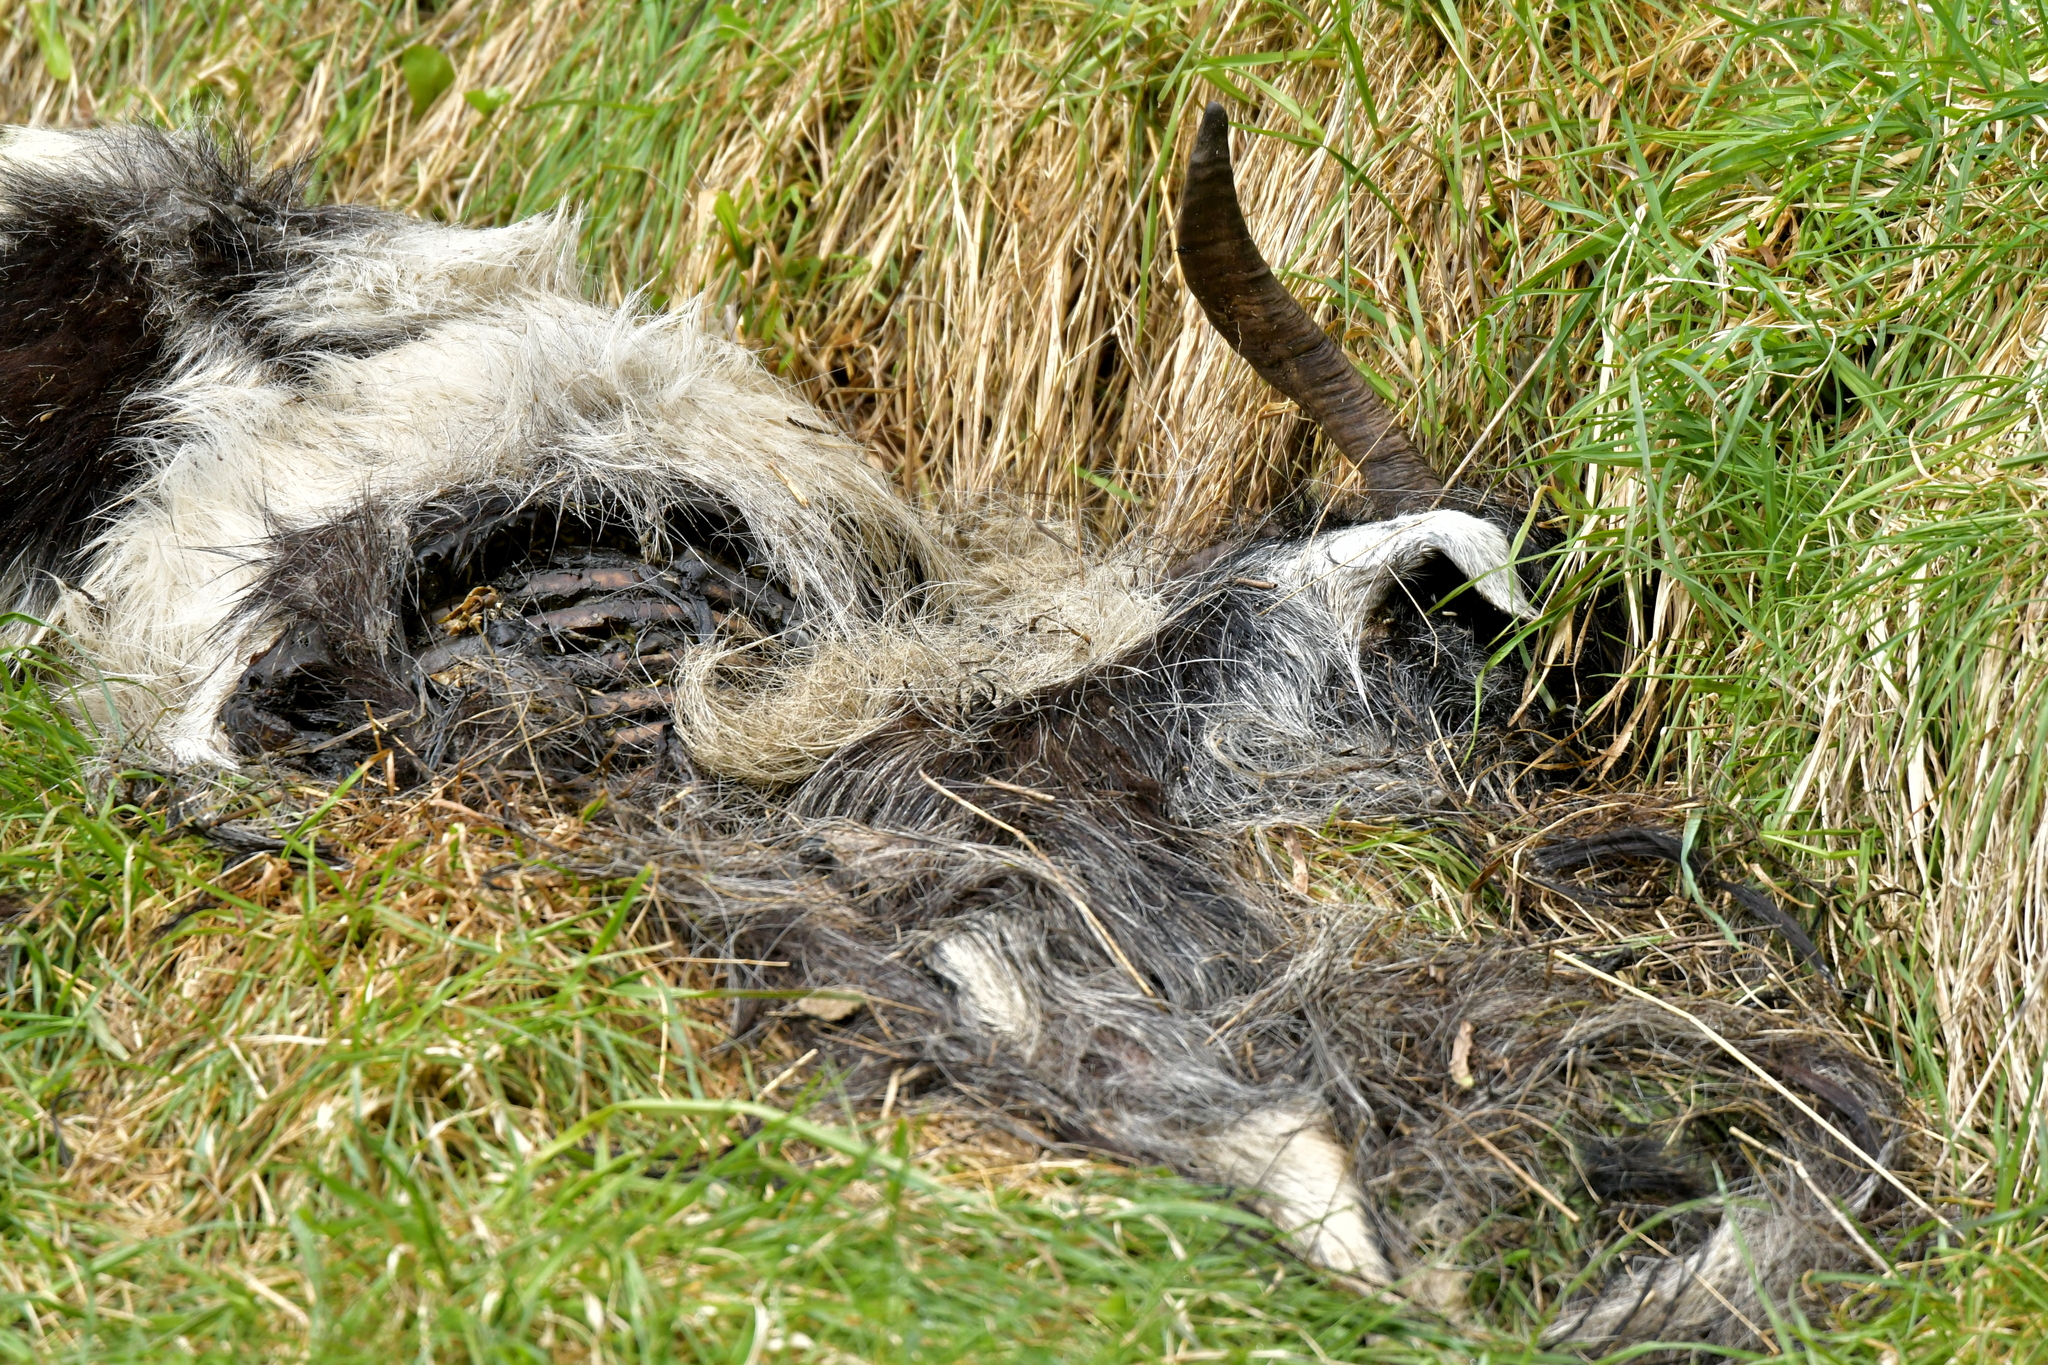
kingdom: Animalia
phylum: Chordata
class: Mammalia
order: Artiodactyla
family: Bovidae
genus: Capra
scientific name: Capra hircus
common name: Domestic goat
